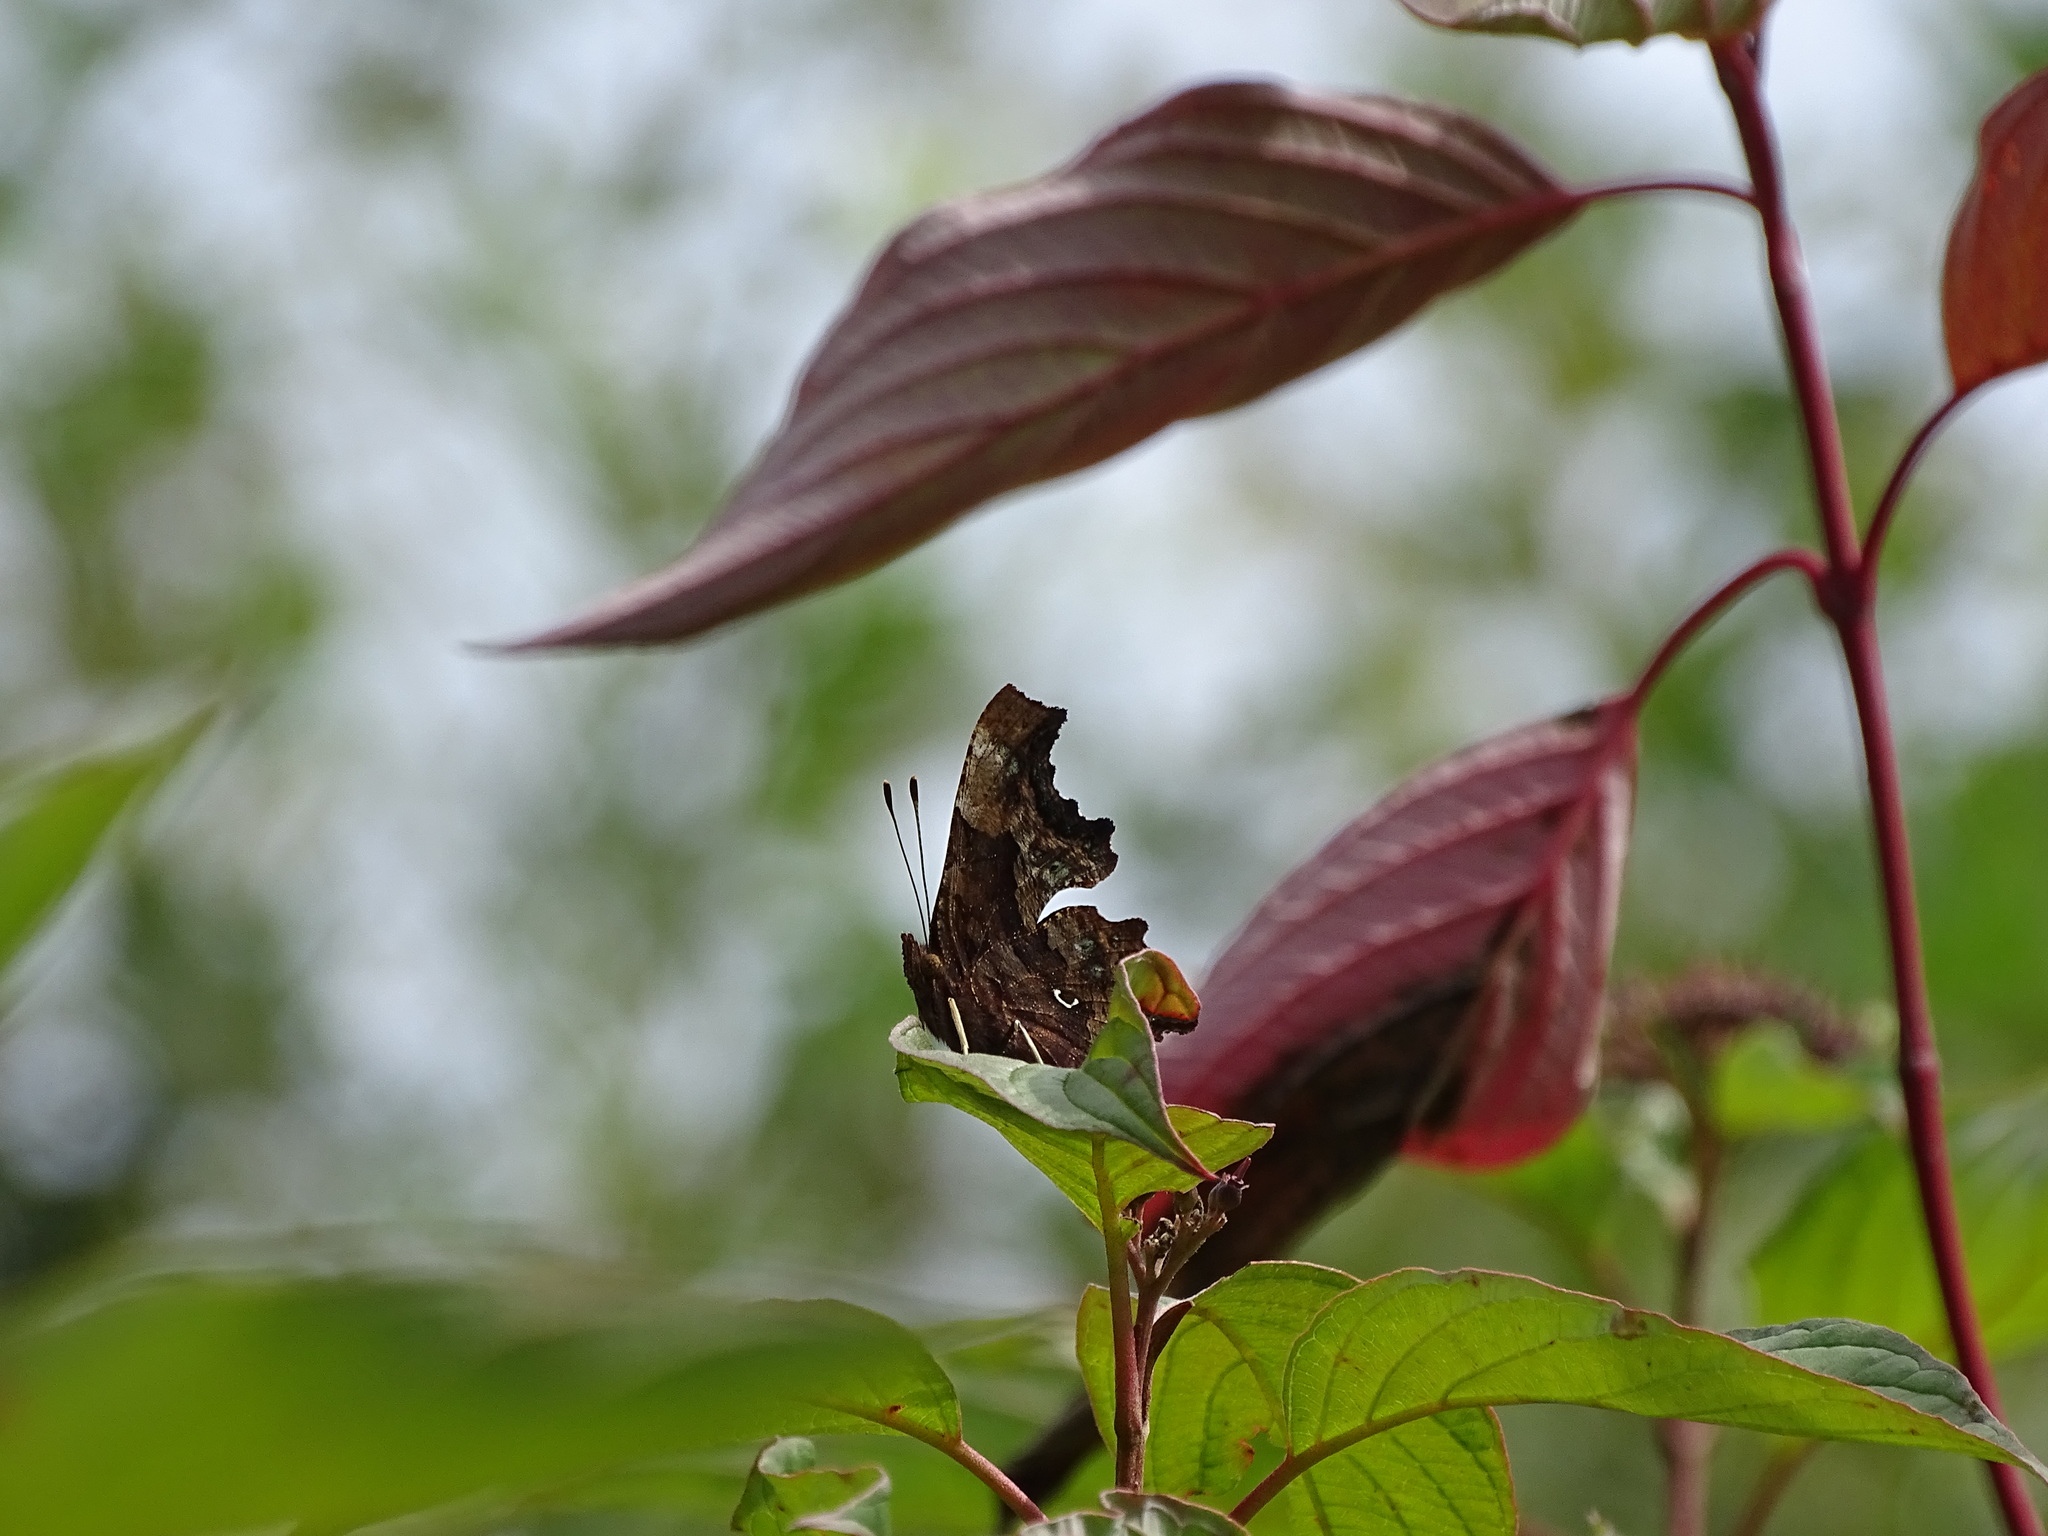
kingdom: Animalia
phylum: Arthropoda
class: Insecta
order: Lepidoptera
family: Nymphalidae
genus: Polygonia
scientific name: Polygonia c-album
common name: Comma
